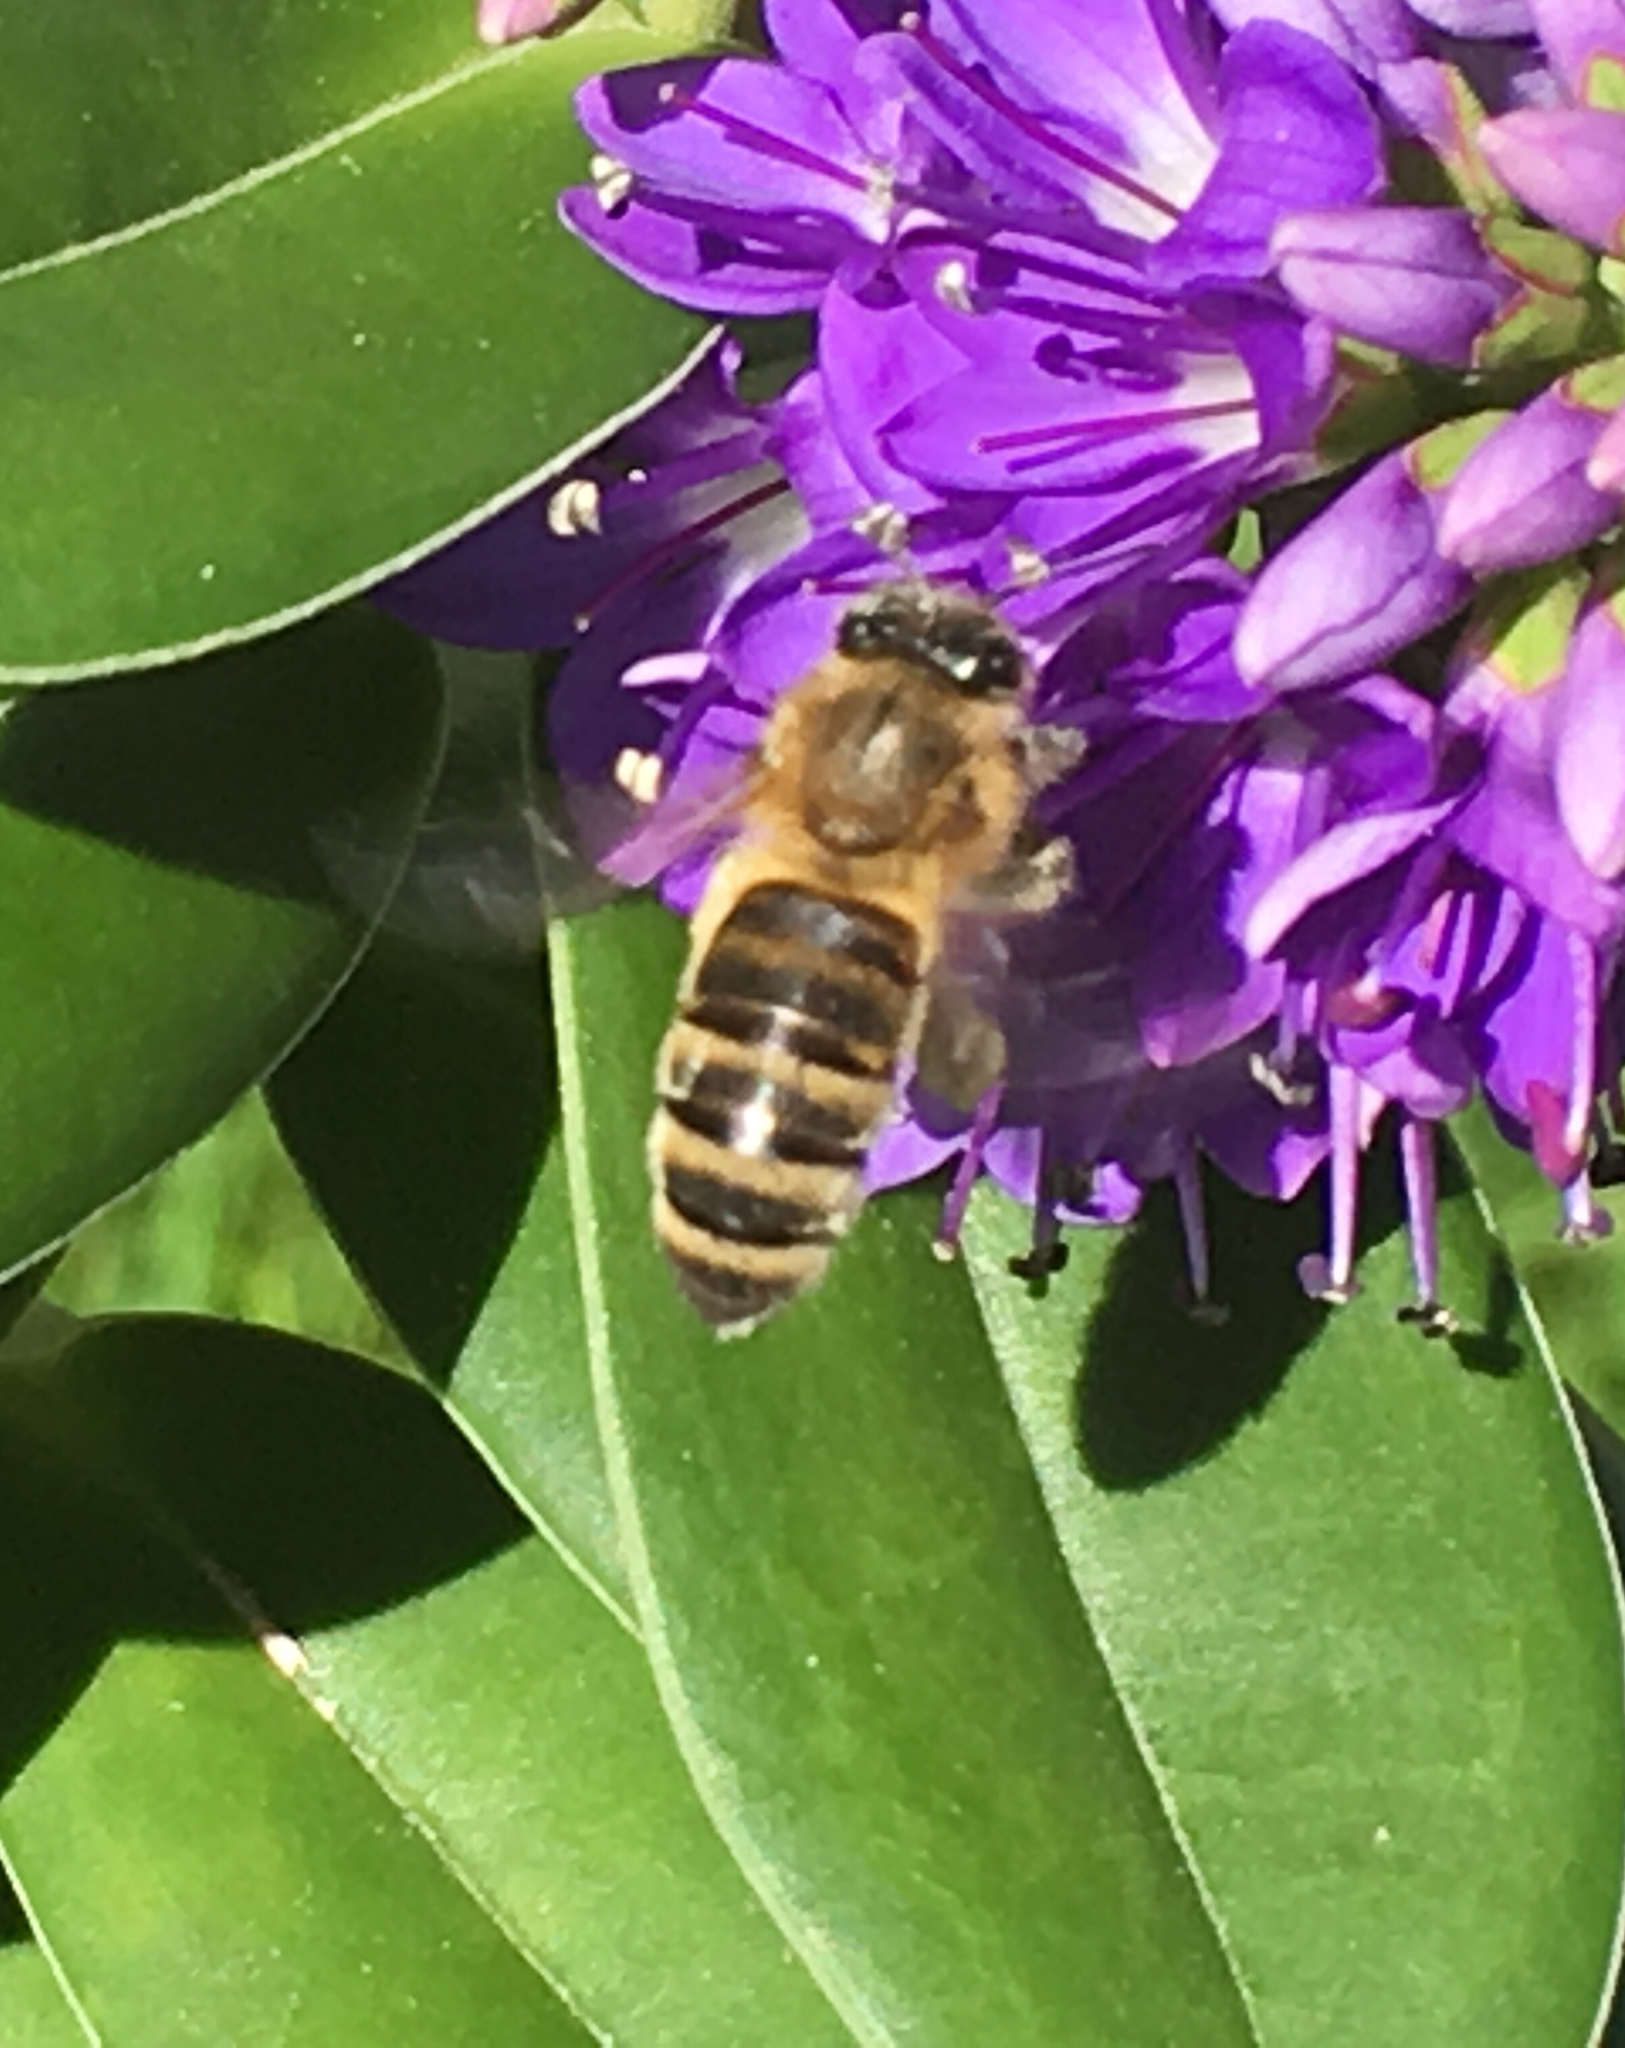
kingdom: Animalia
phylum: Arthropoda
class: Insecta
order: Hymenoptera
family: Apidae
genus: Apis
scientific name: Apis mellifera
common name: Honey bee
